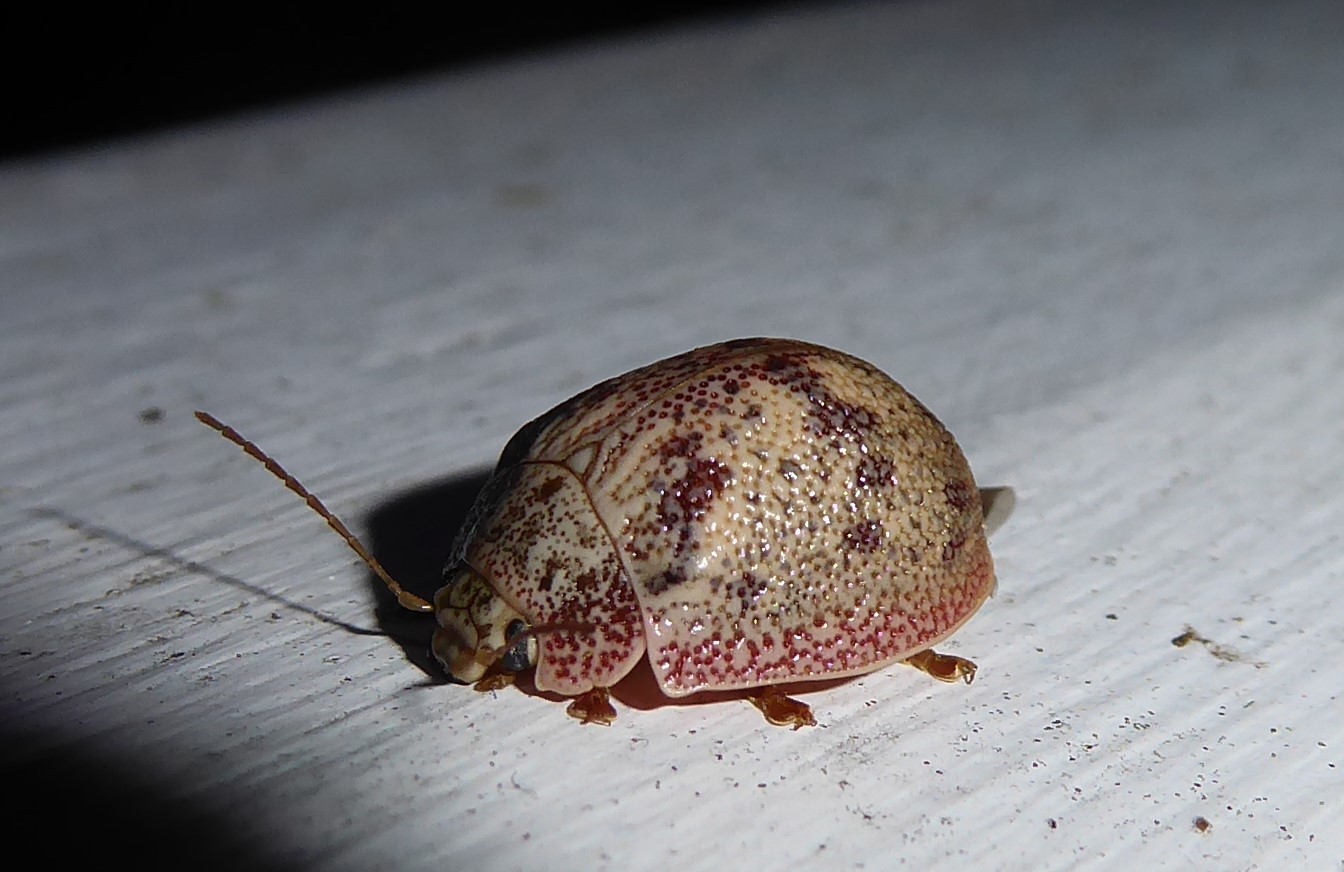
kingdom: Animalia
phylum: Arthropoda
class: Insecta
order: Coleoptera
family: Chrysomelidae
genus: Paropsis
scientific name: Paropsis charybdis
